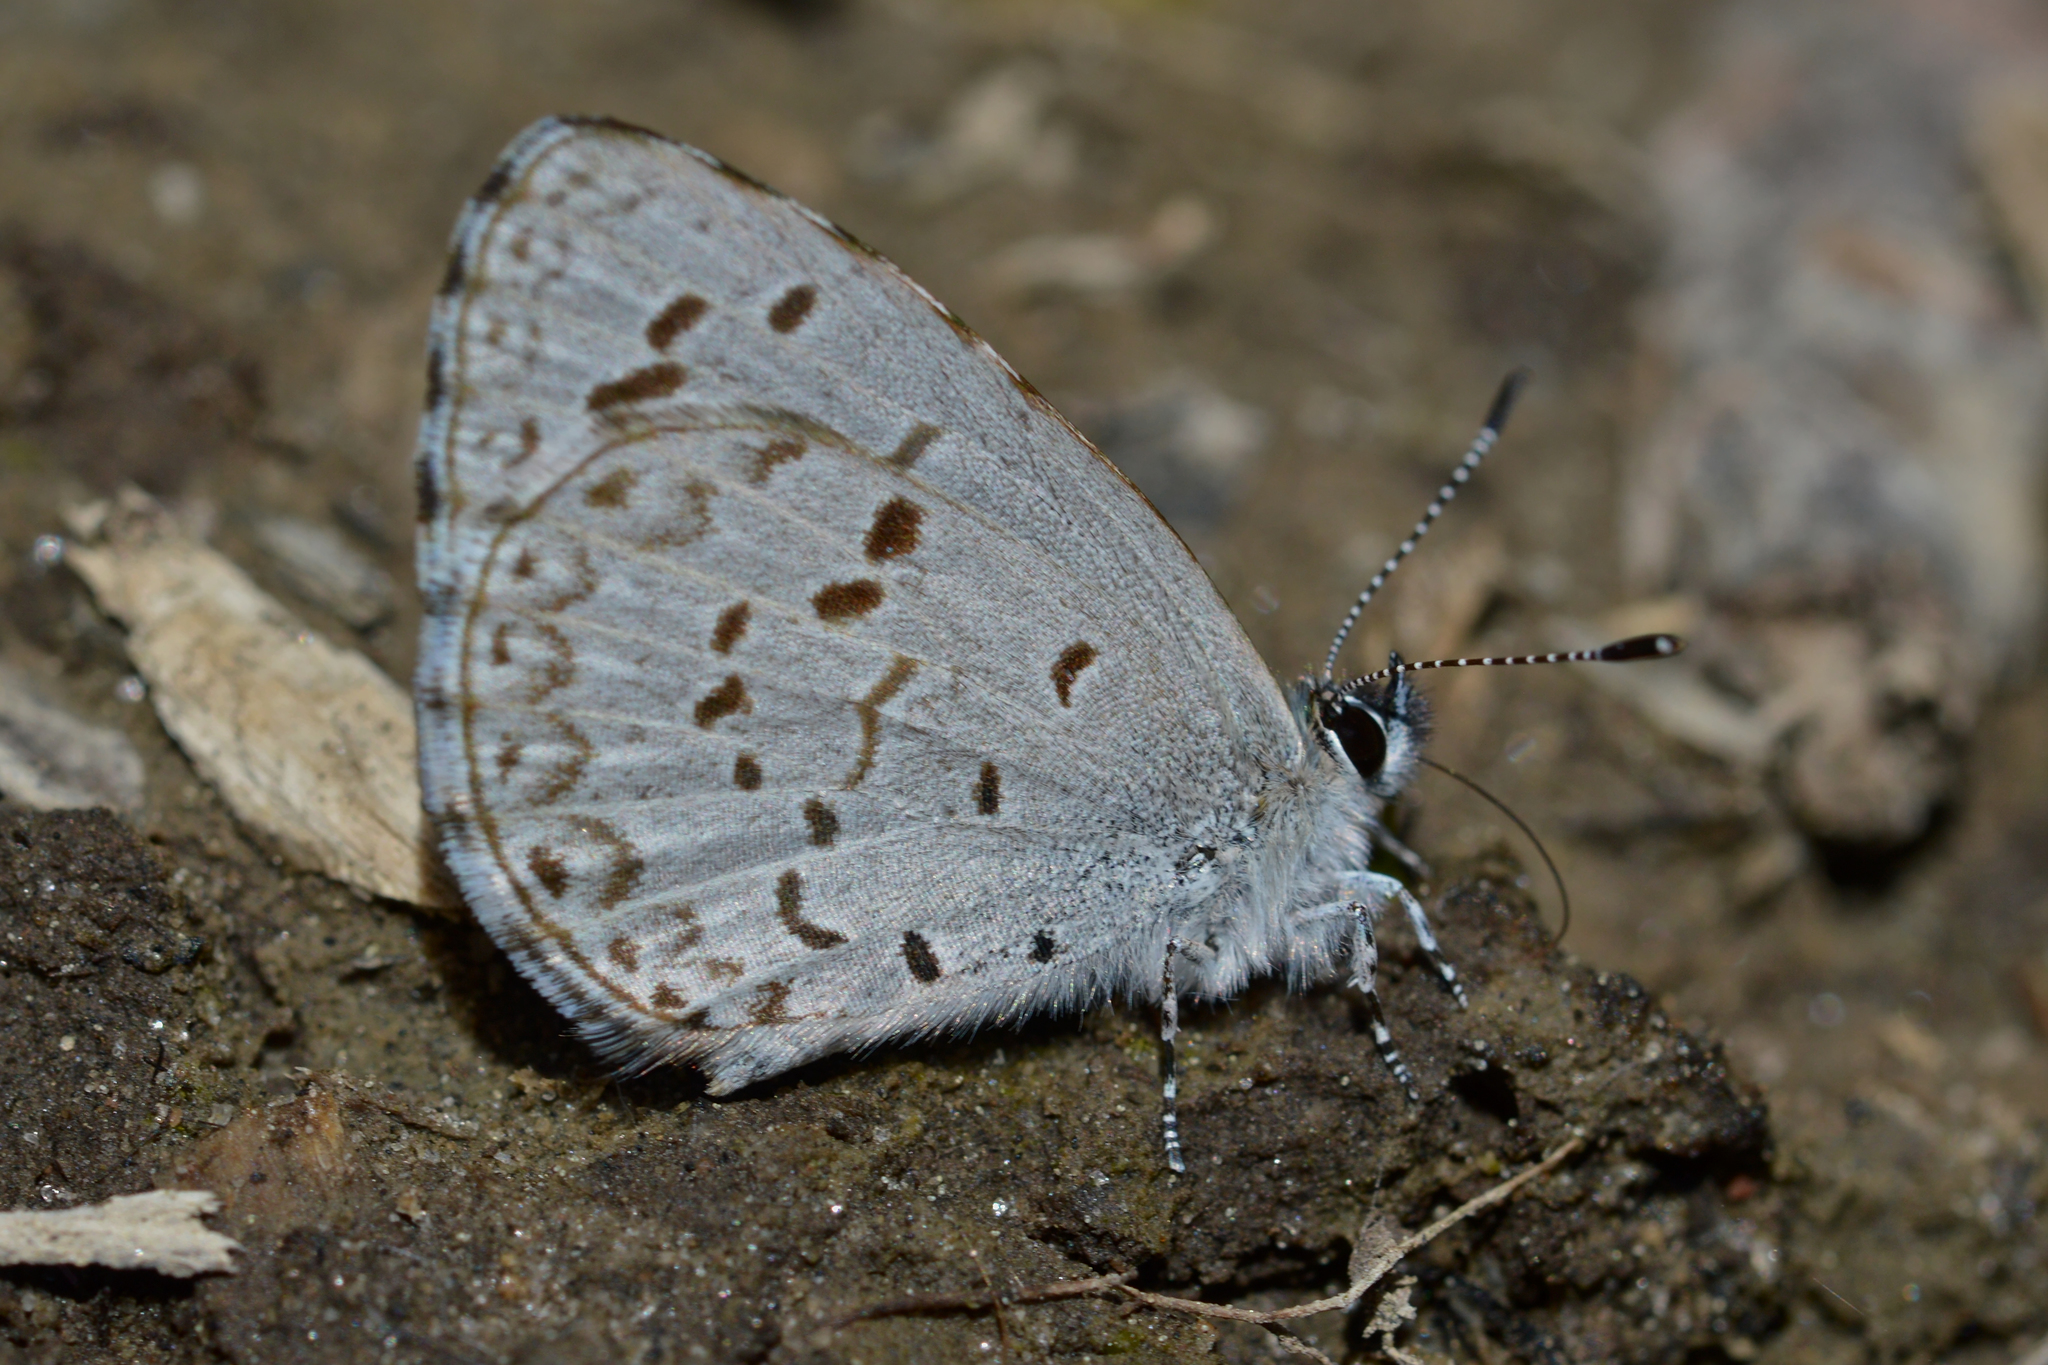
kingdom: Animalia
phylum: Arthropoda
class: Insecta
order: Lepidoptera
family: Lycaenidae
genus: Celastrina
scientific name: Celastrina lucia
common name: Lucia azure
